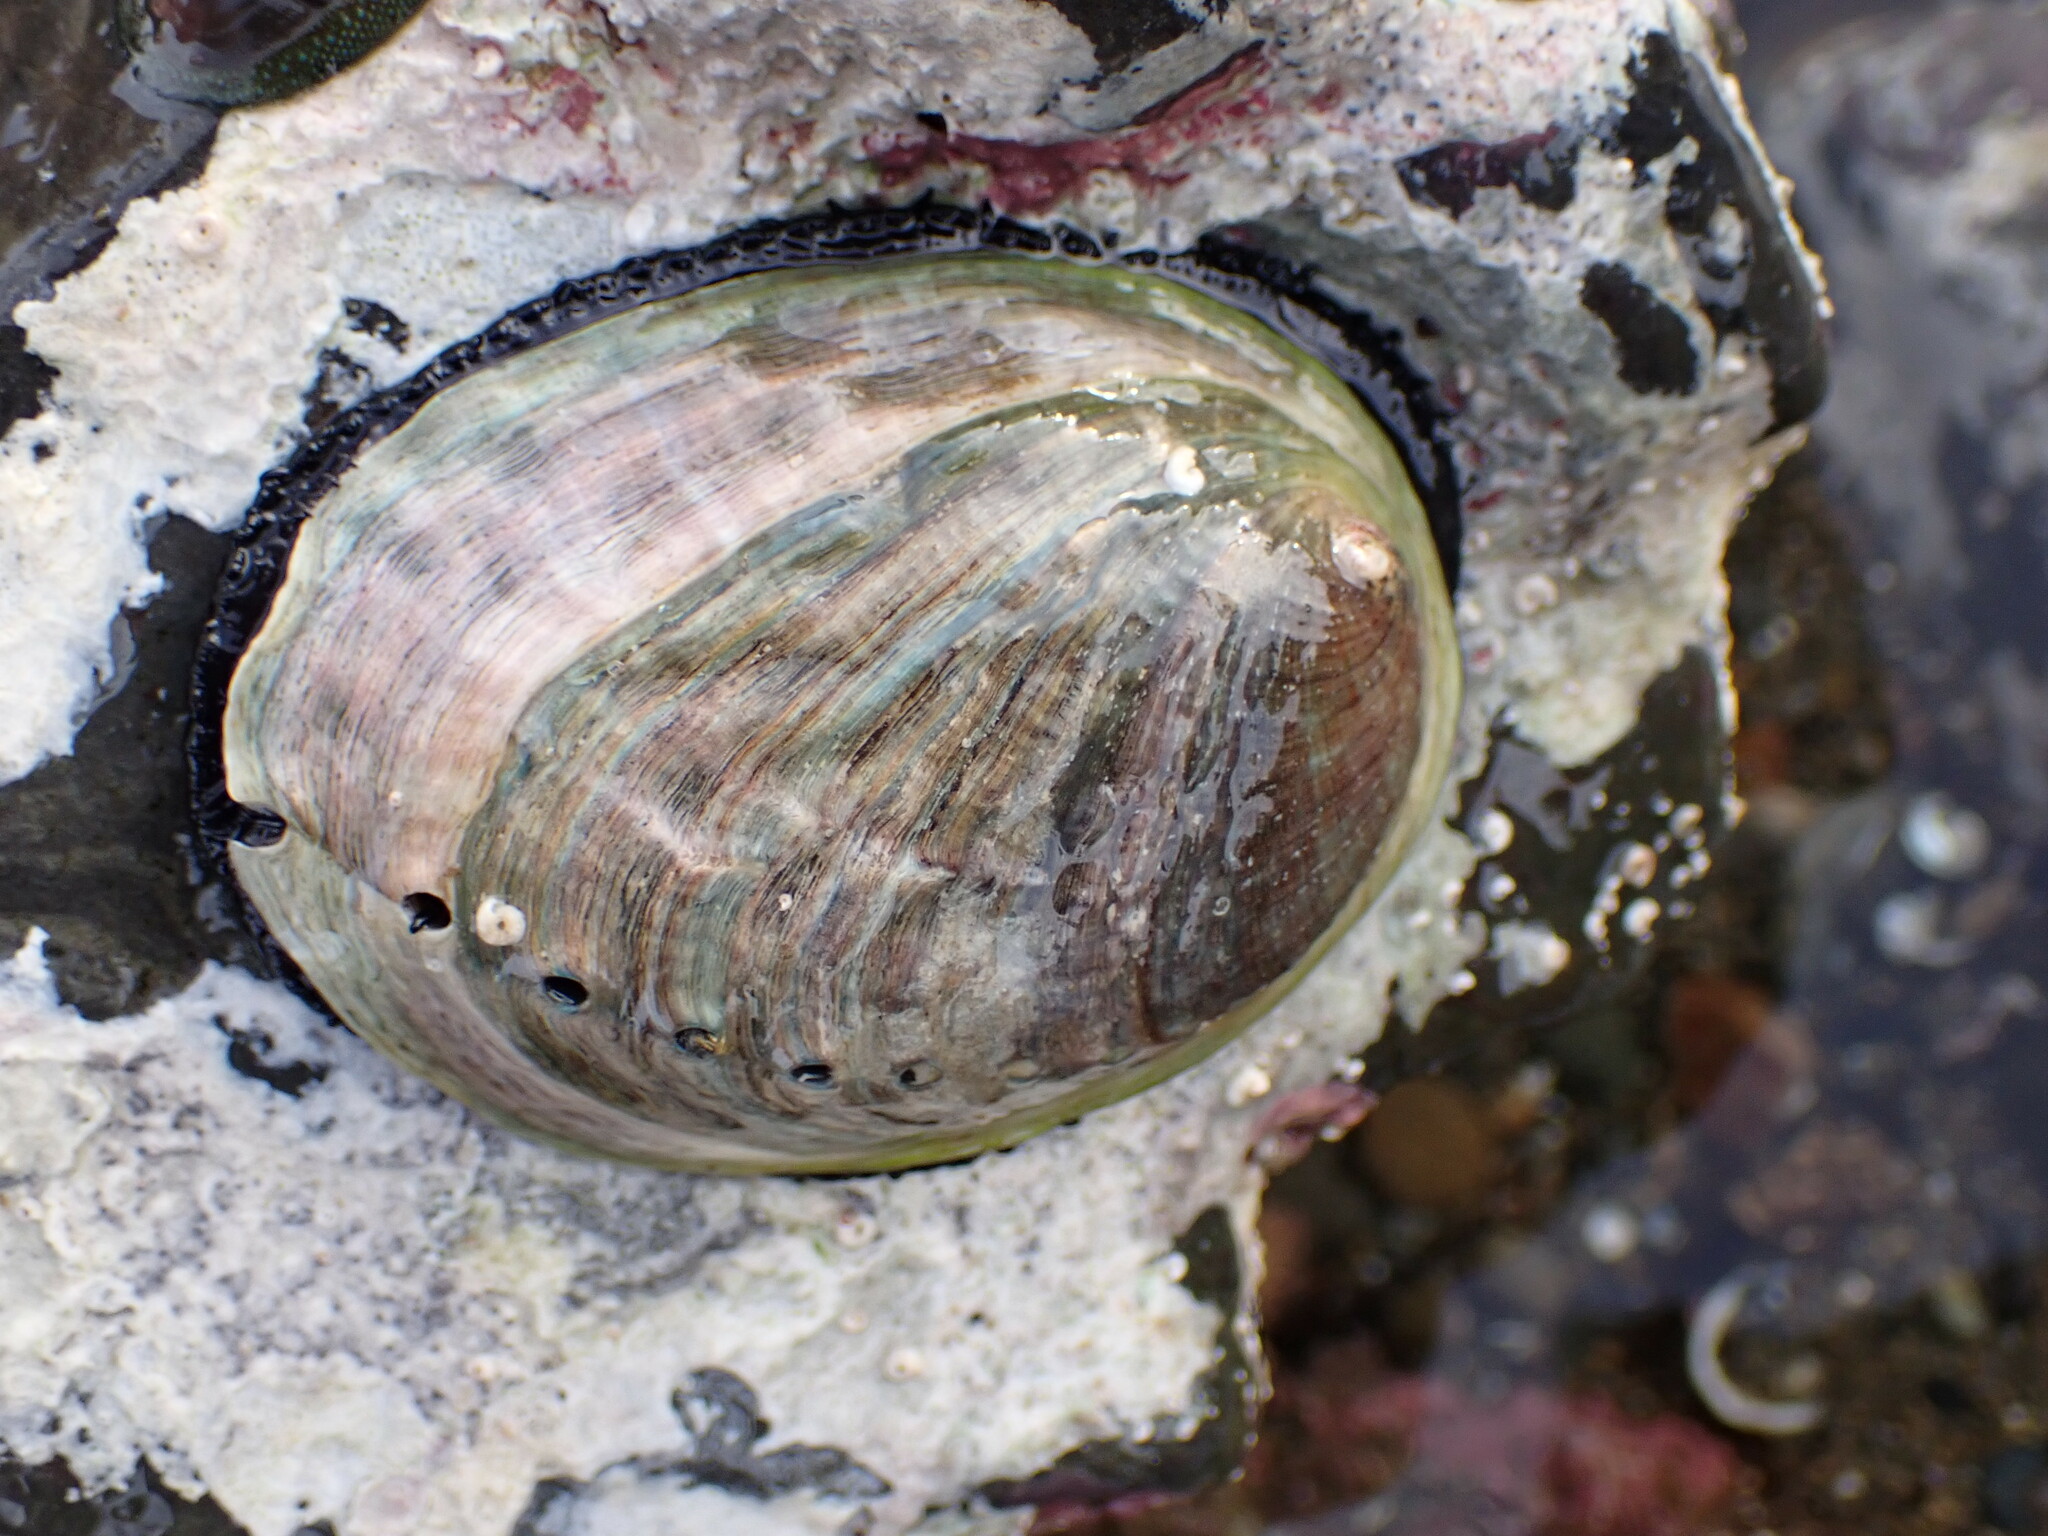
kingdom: Animalia
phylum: Mollusca
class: Gastropoda
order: Lepetellida
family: Haliotidae
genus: Haliotis
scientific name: Haliotis iris
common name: Abalone
